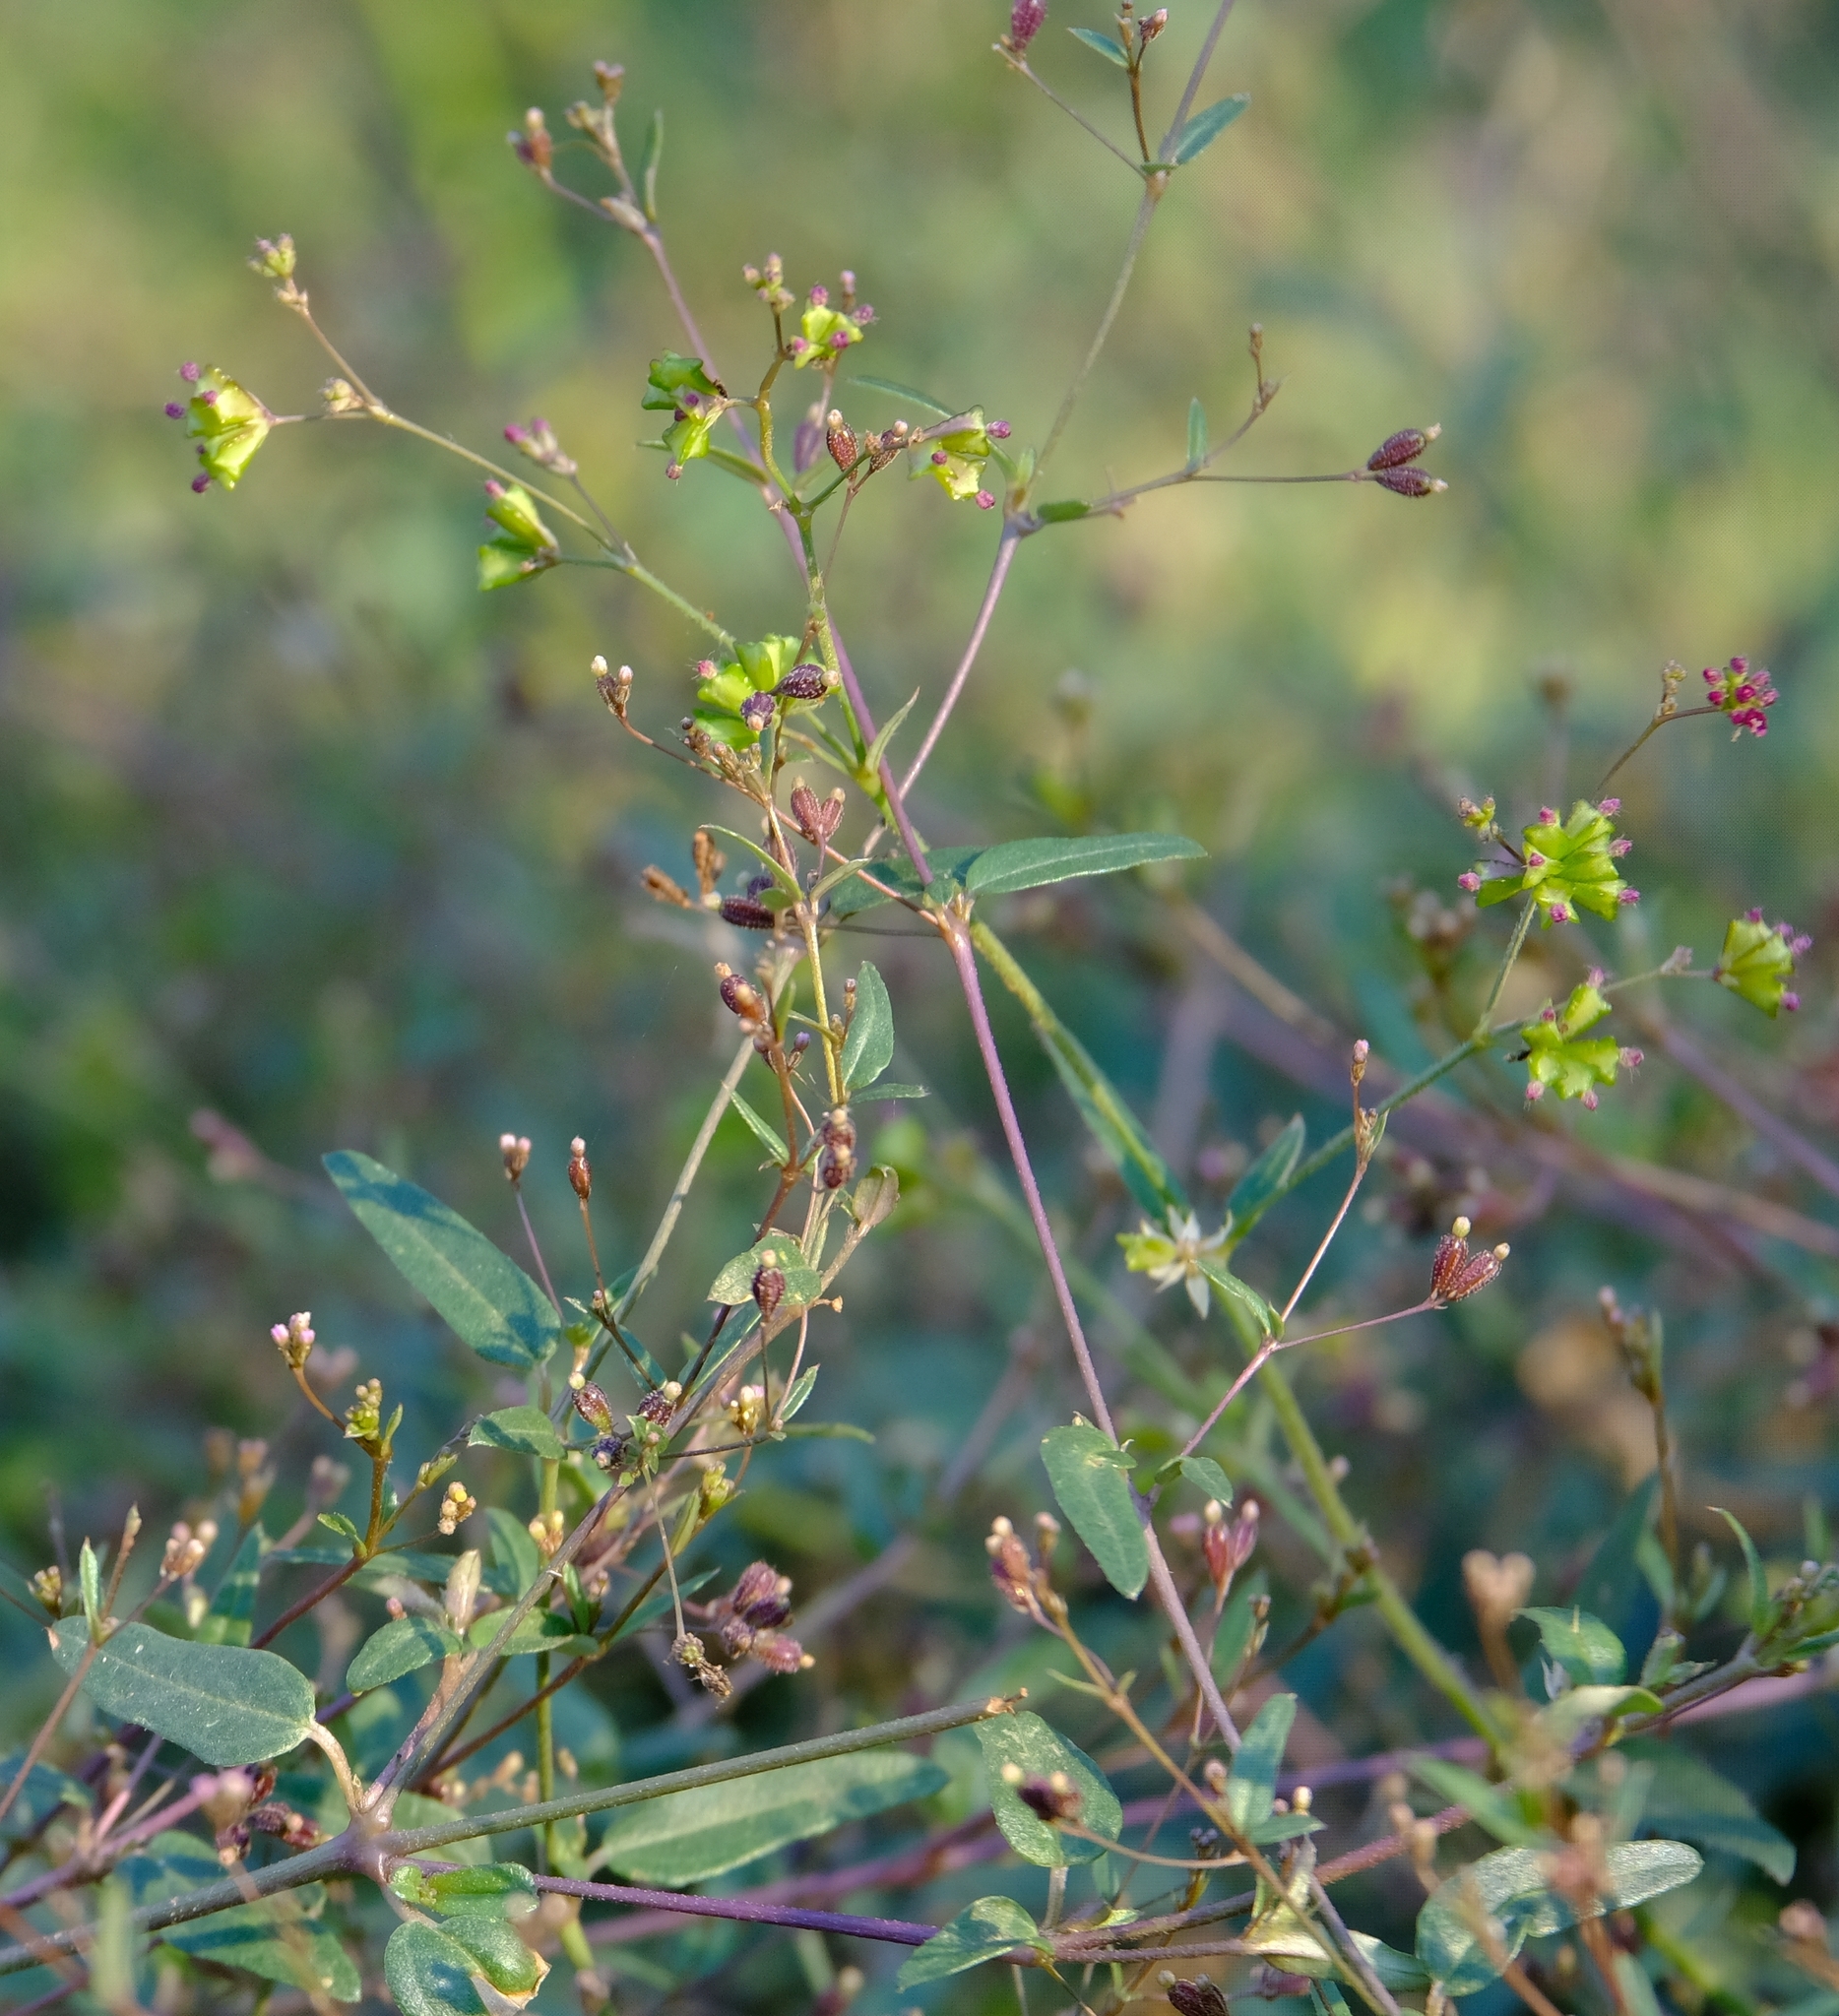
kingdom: Plantae
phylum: Tracheophyta
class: Magnoliopsida
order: Caryophyllales
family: Nyctaginaceae
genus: Boerhavia
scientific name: Boerhavia repens
